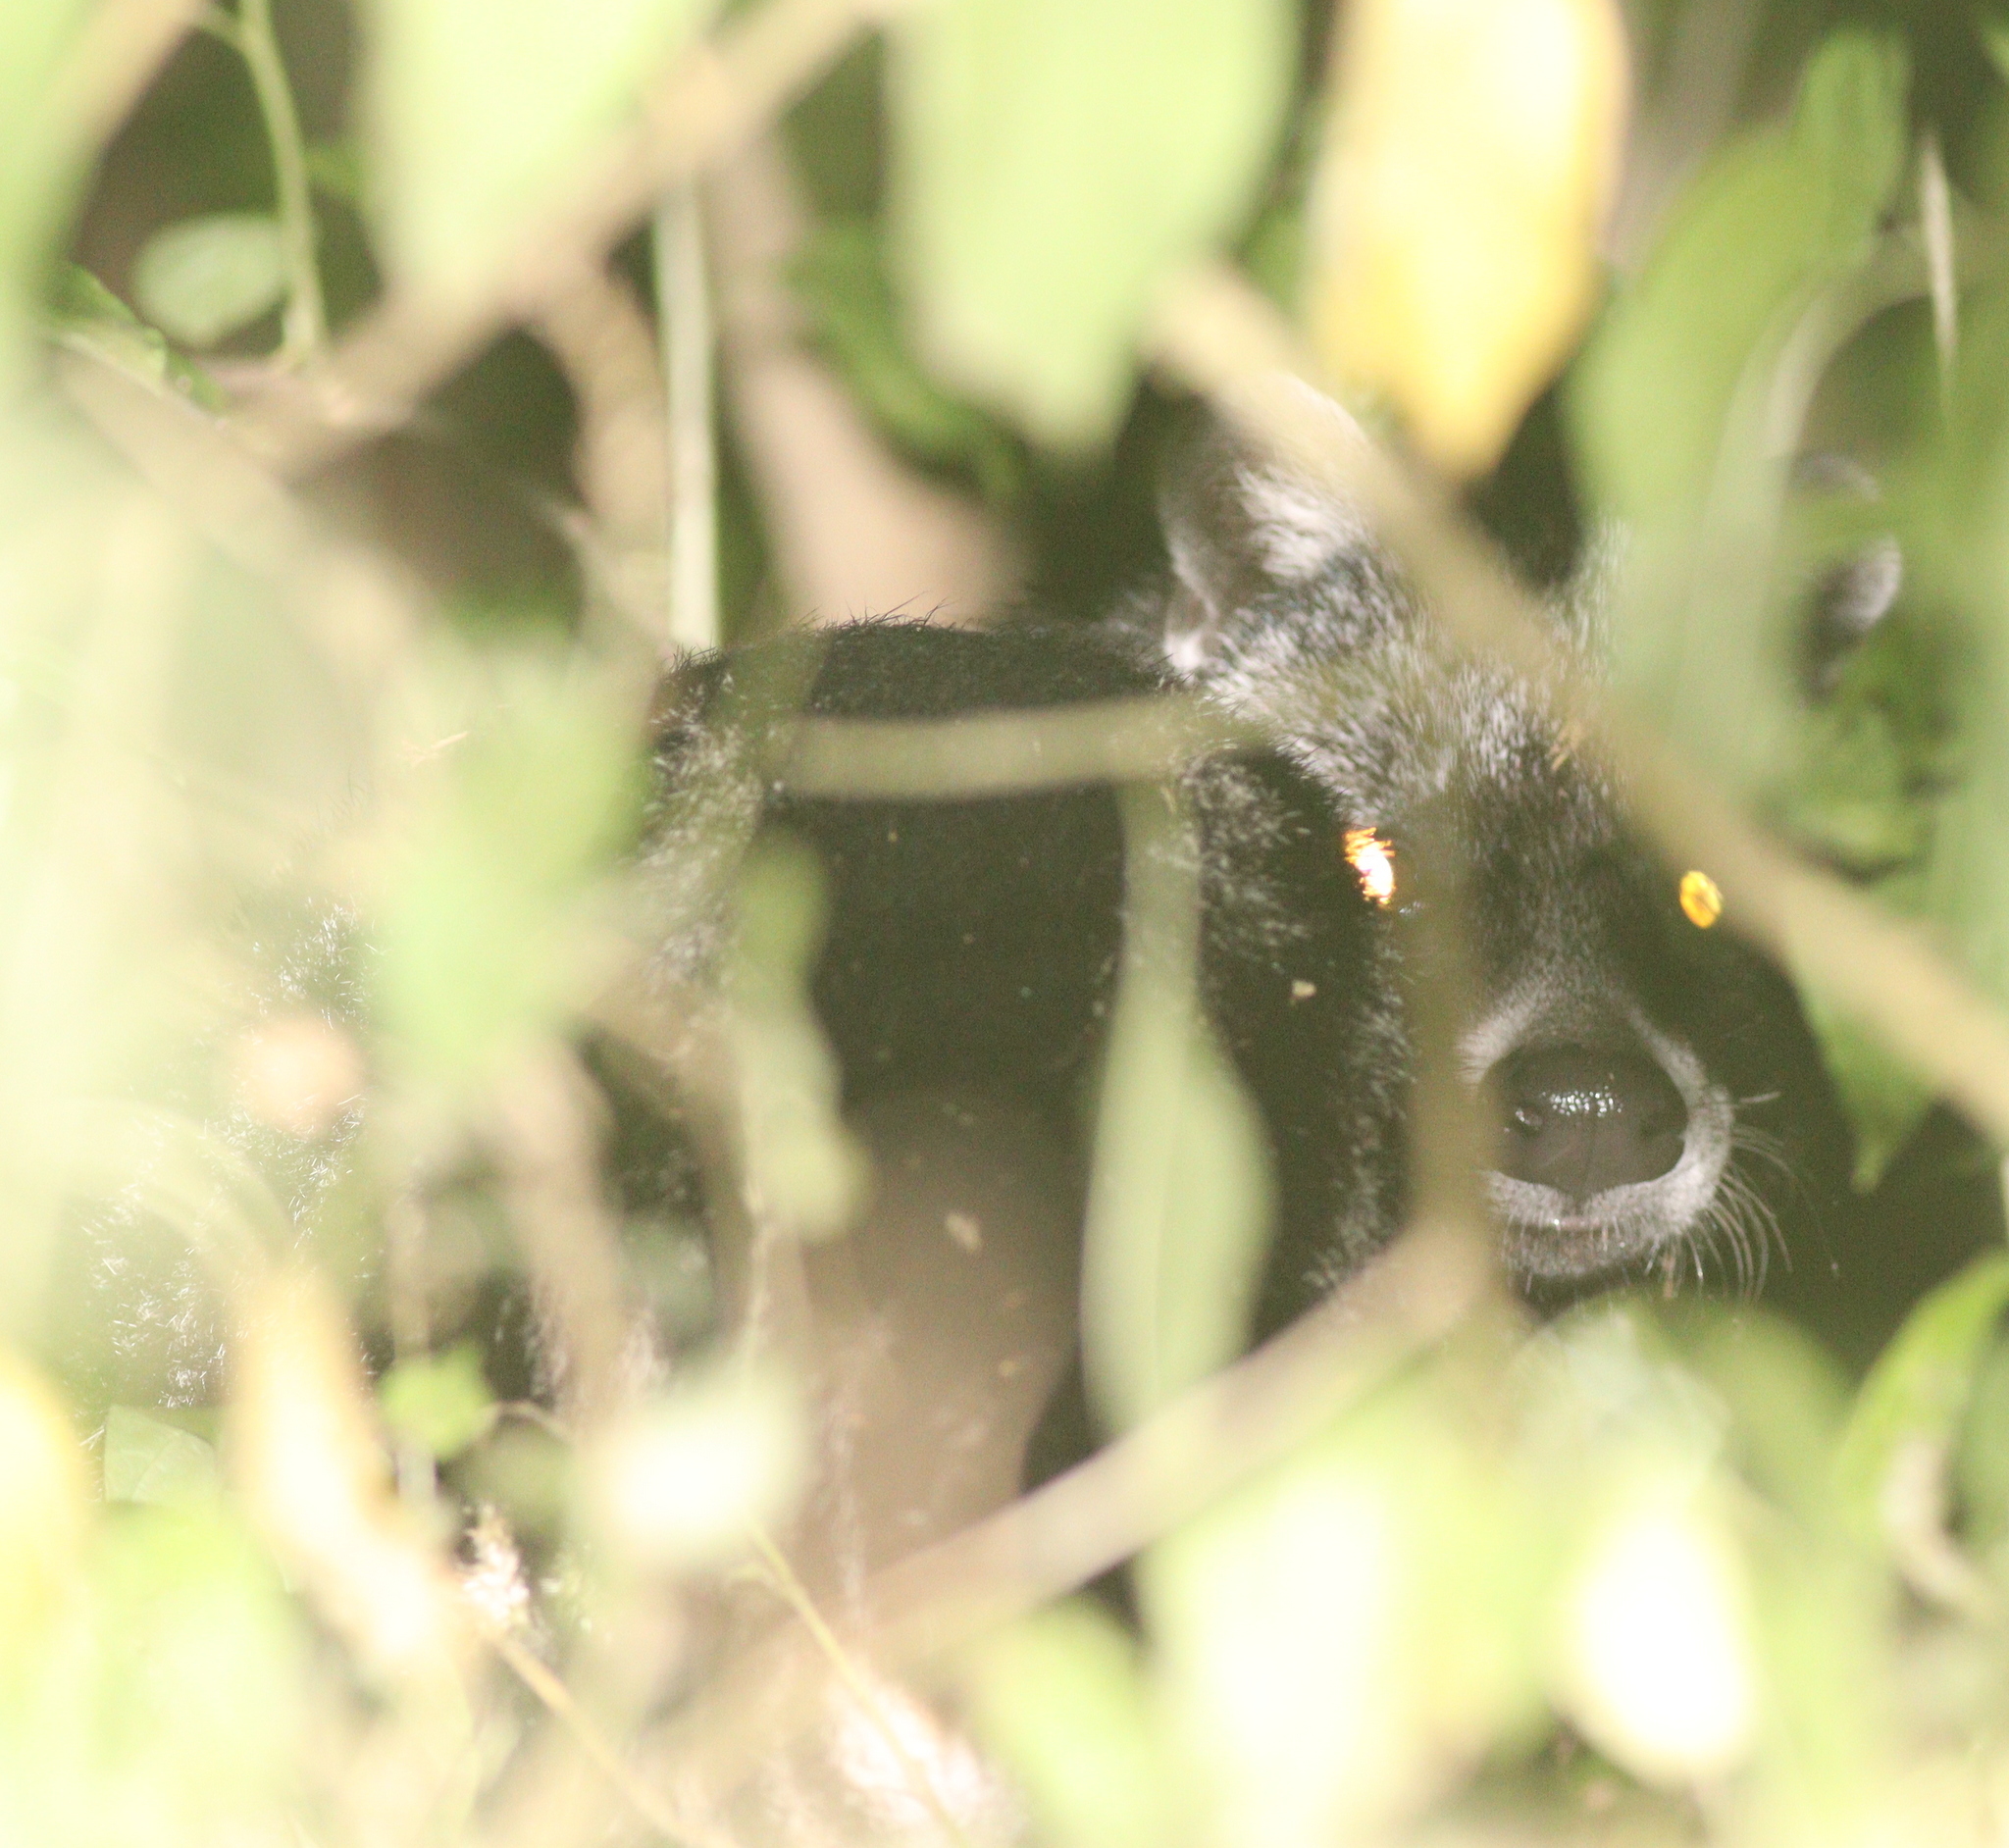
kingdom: Animalia
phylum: Chordata
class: Mammalia
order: Carnivora
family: Viverridae
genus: Civettictis
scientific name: Civettictis civetta
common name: African civet
